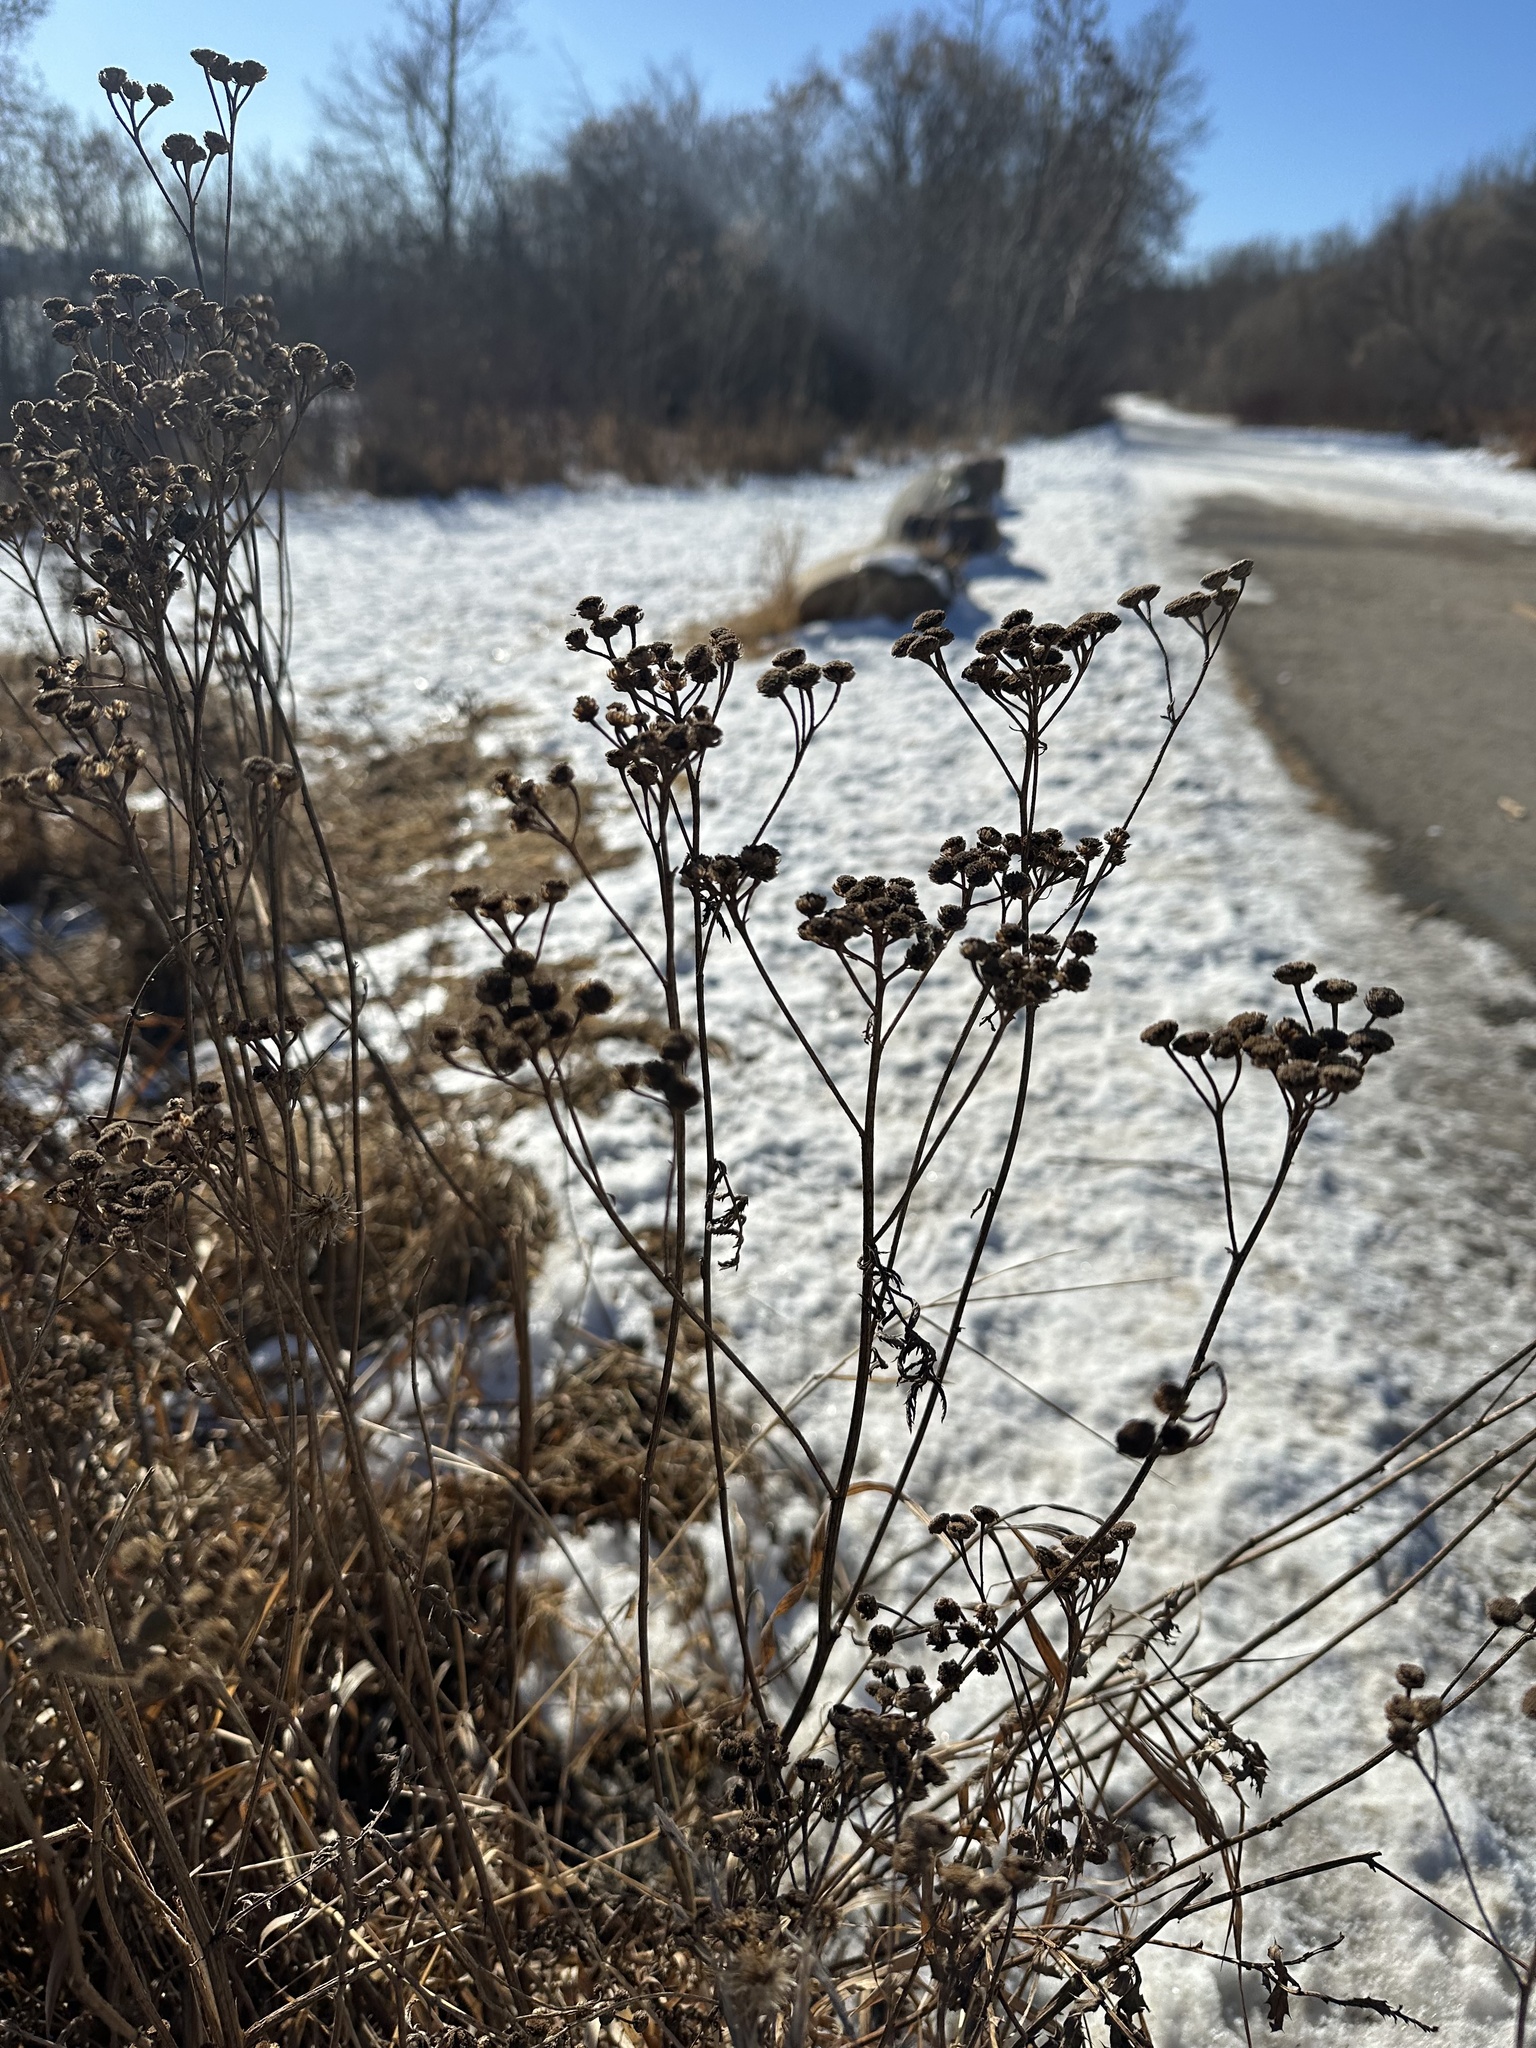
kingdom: Plantae
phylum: Tracheophyta
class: Magnoliopsida
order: Asterales
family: Asteraceae
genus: Tanacetum
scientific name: Tanacetum vulgare
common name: Common tansy
